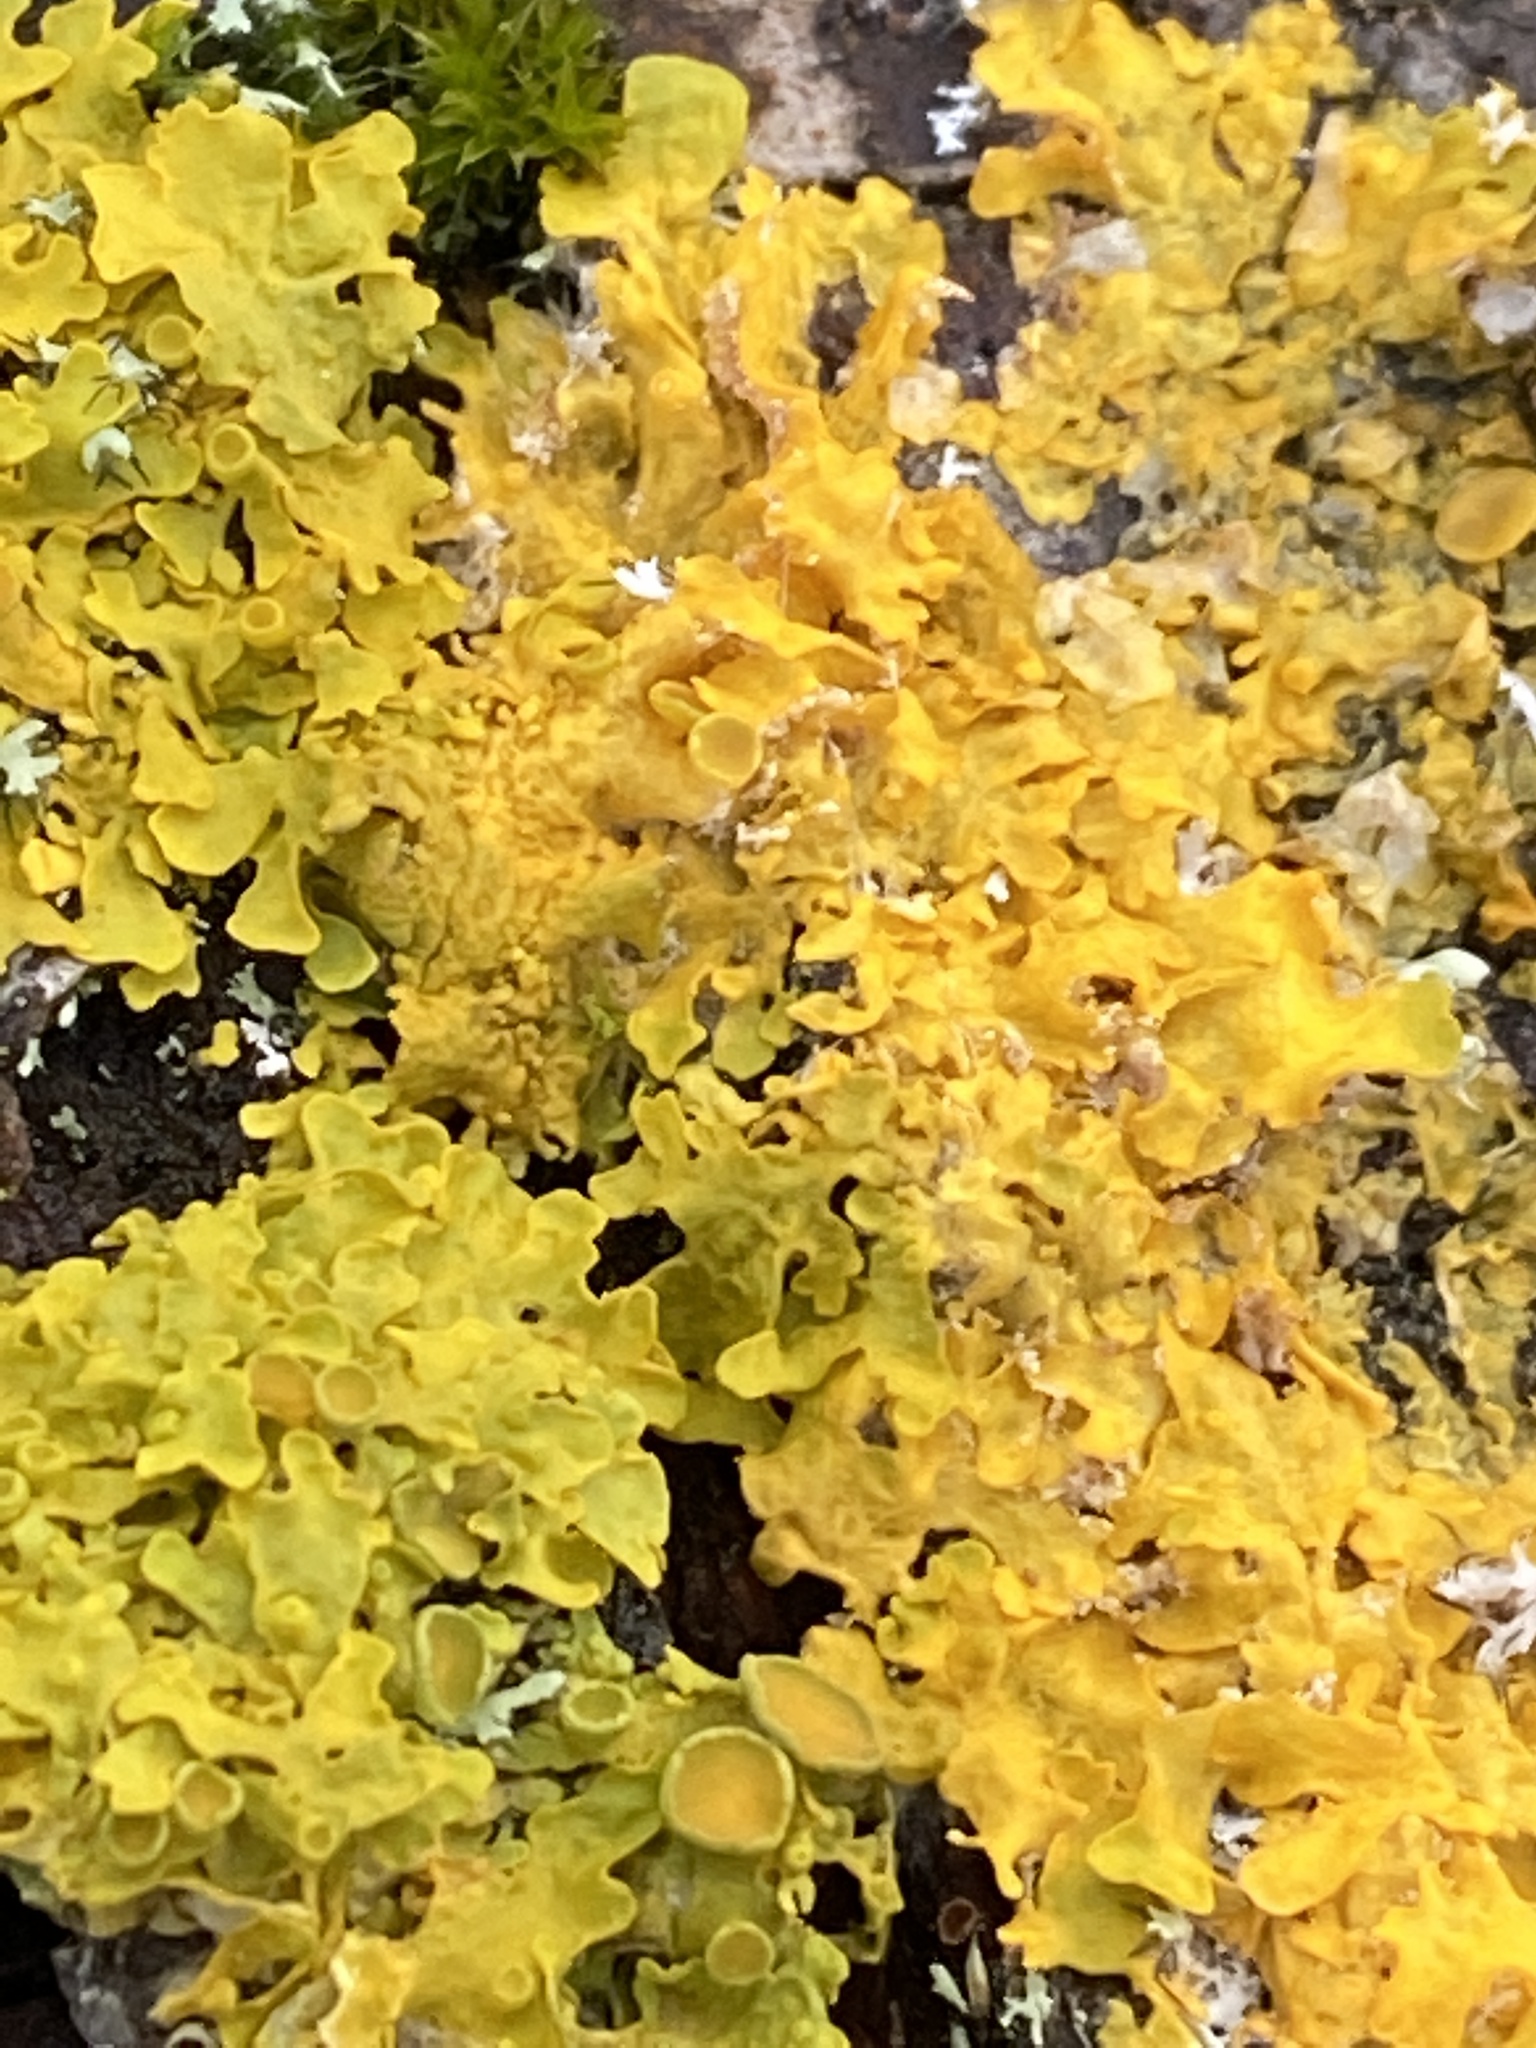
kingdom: Fungi
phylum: Ascomycota
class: Lecanoromycetes
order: Teloschistales
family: Teloschistaceae
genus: Xanthoria
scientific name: Xanthoria parietina
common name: Common orange lichen
